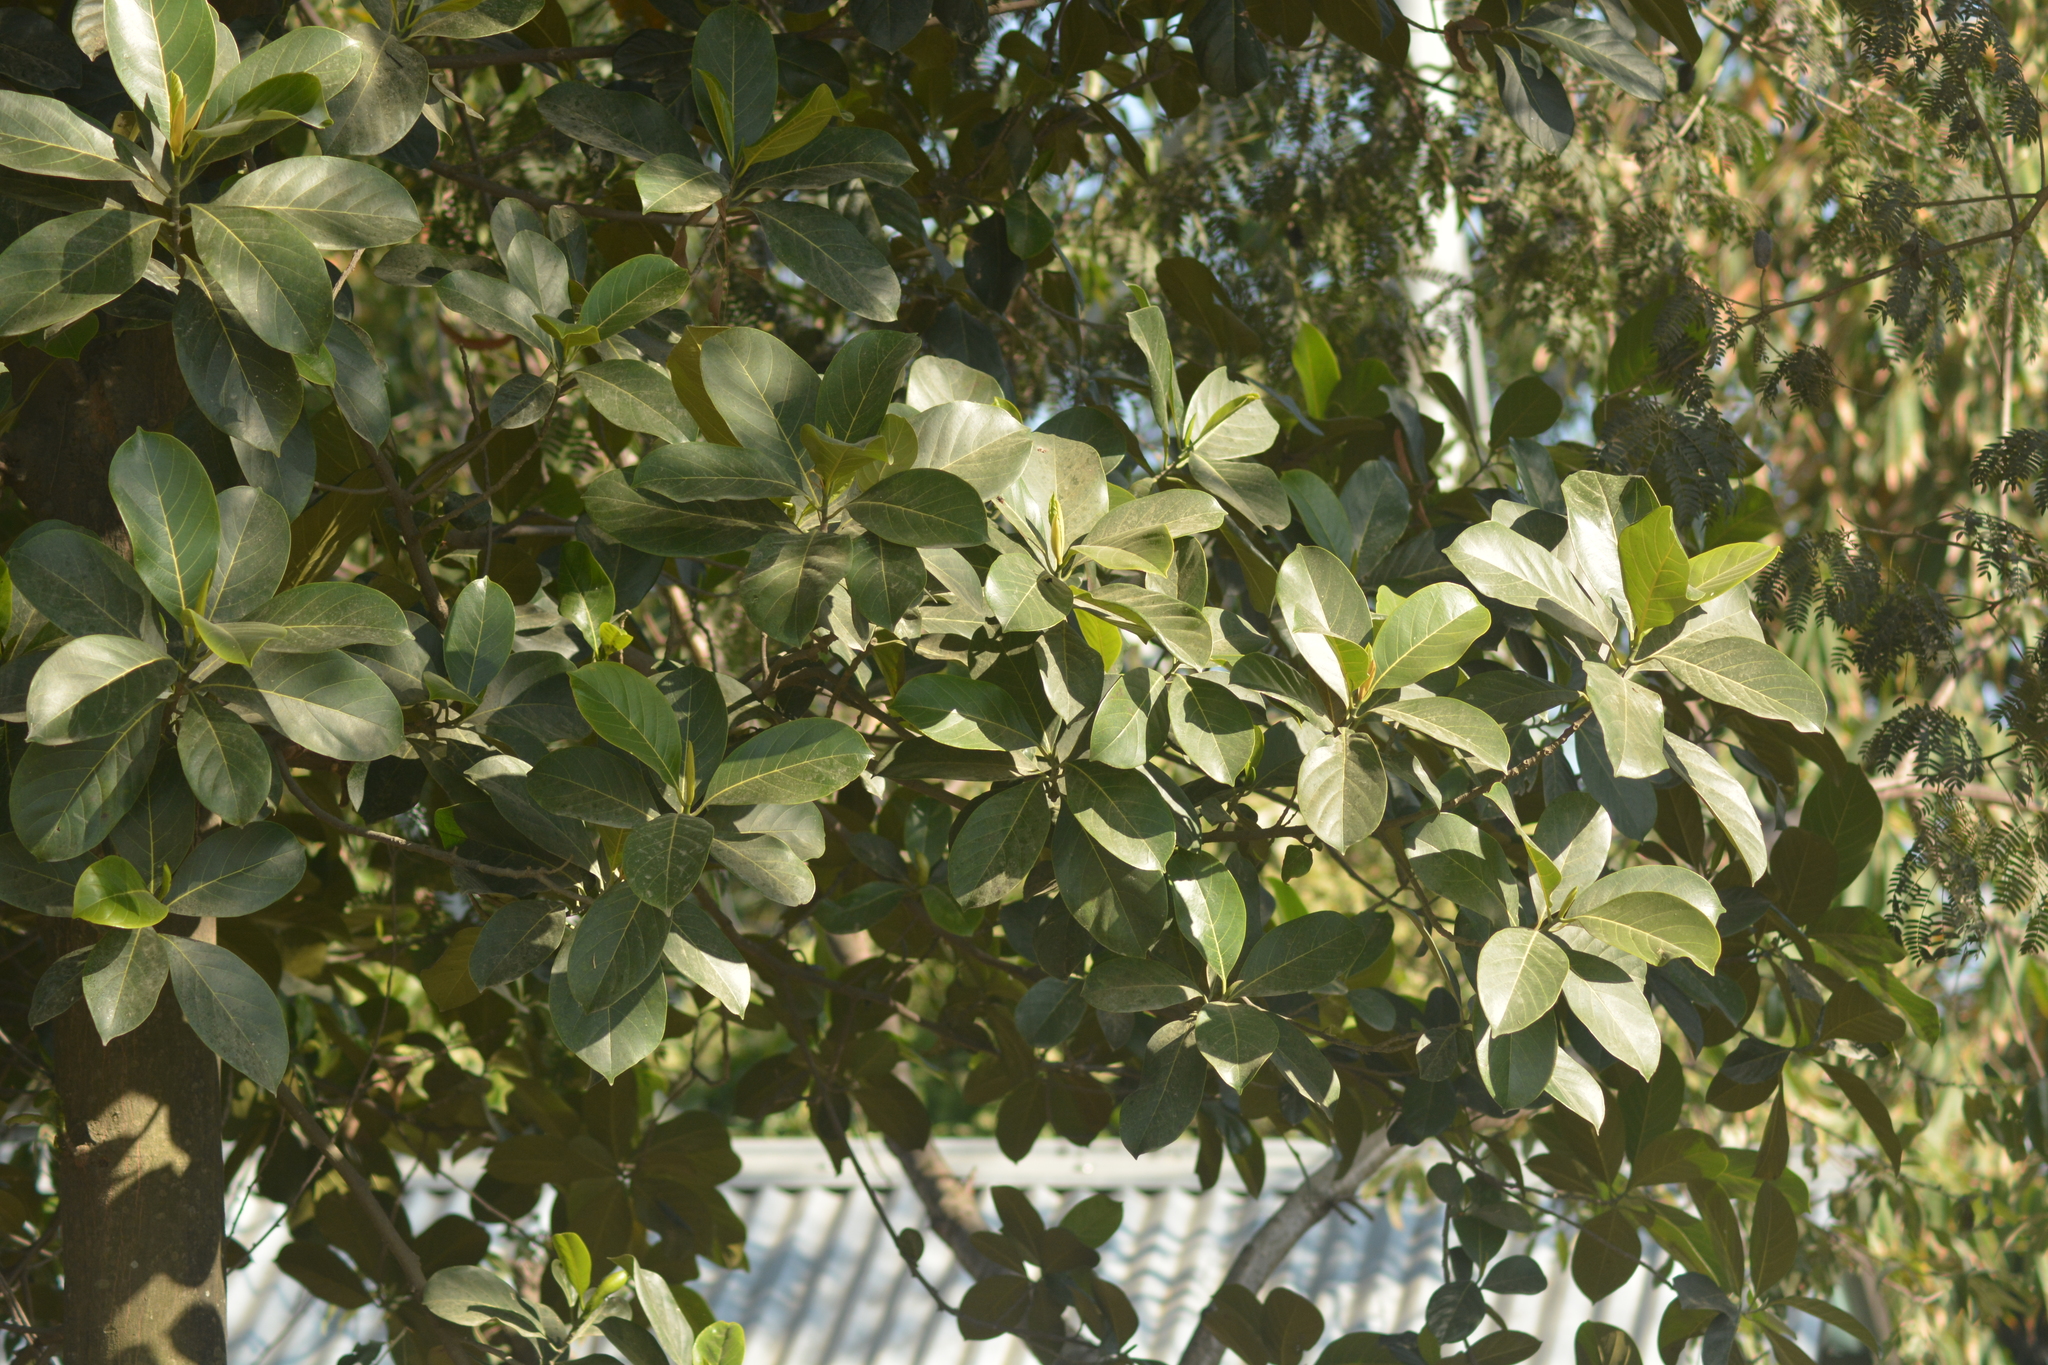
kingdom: Plantae
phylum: Tracheophyta
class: Magnoliopsida
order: Rosales
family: Moraceae
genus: Artocarpus
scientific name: Artocarpus heterophyllus
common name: Jackfruit
